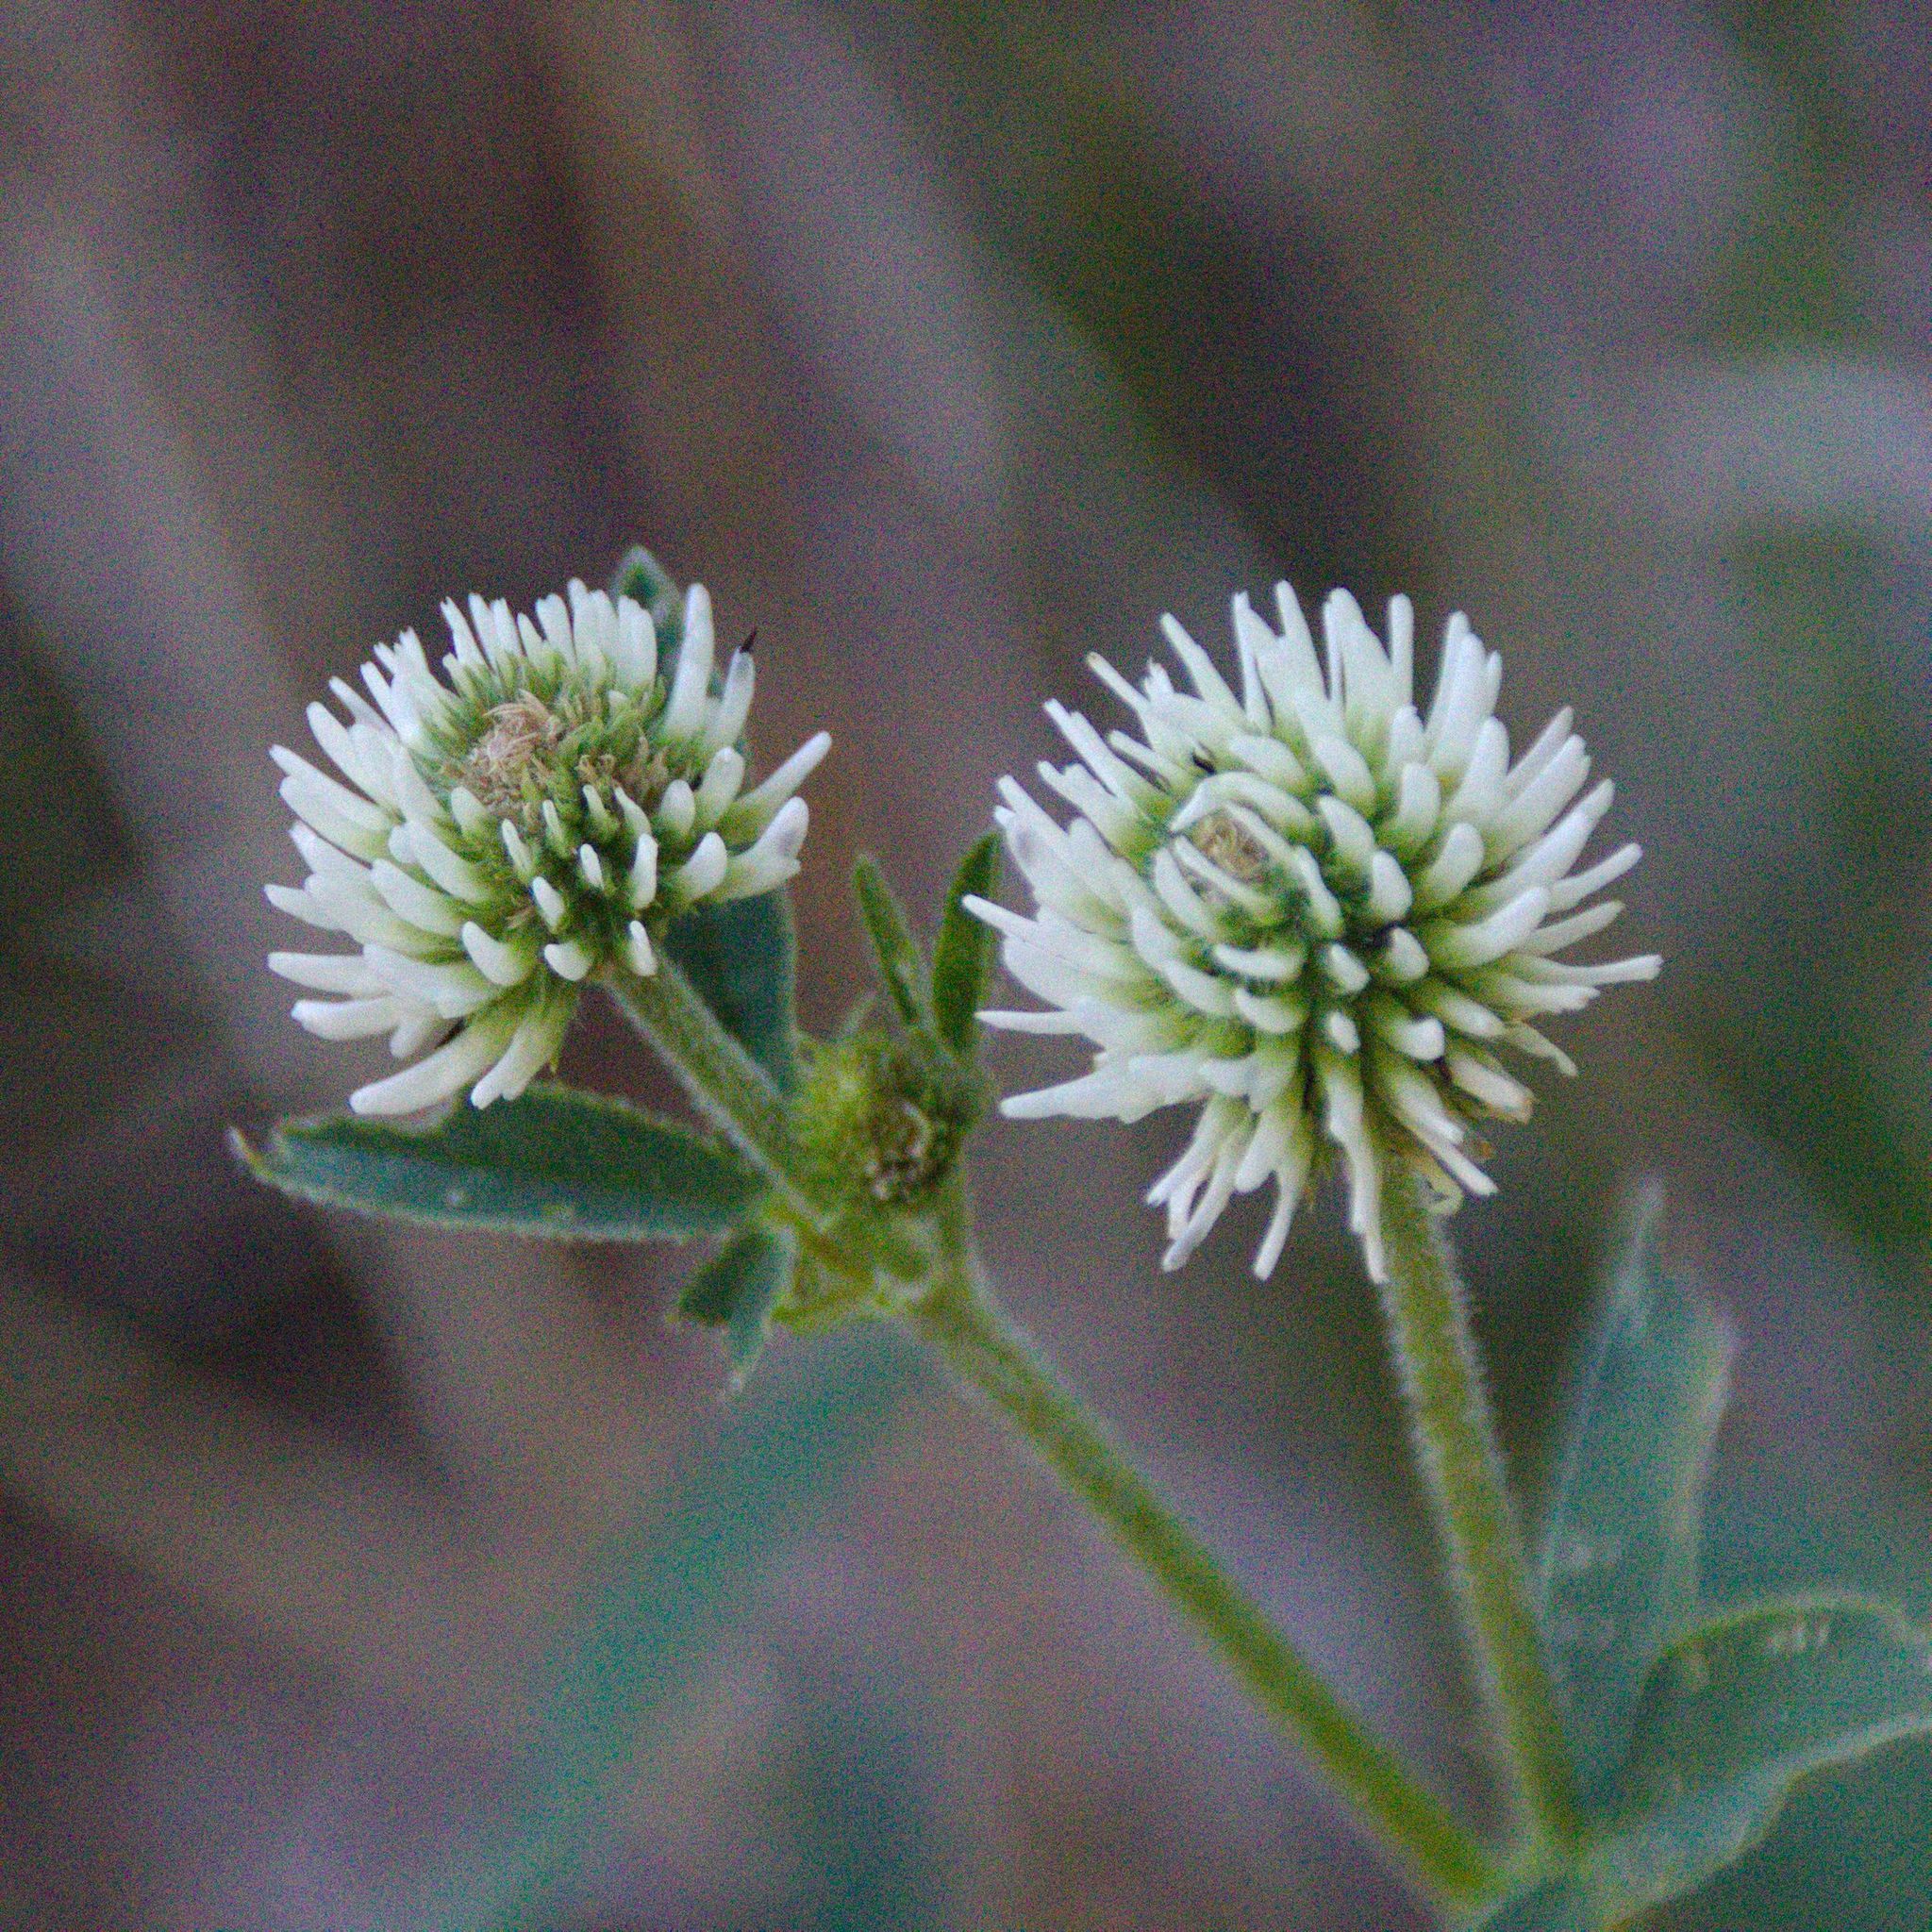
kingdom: Plantae
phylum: Tracheophyta
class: Magnoliopsida
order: Fabales
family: Fabaceae
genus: Trifolium
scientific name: Trifolium montanum
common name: Mountain clover
